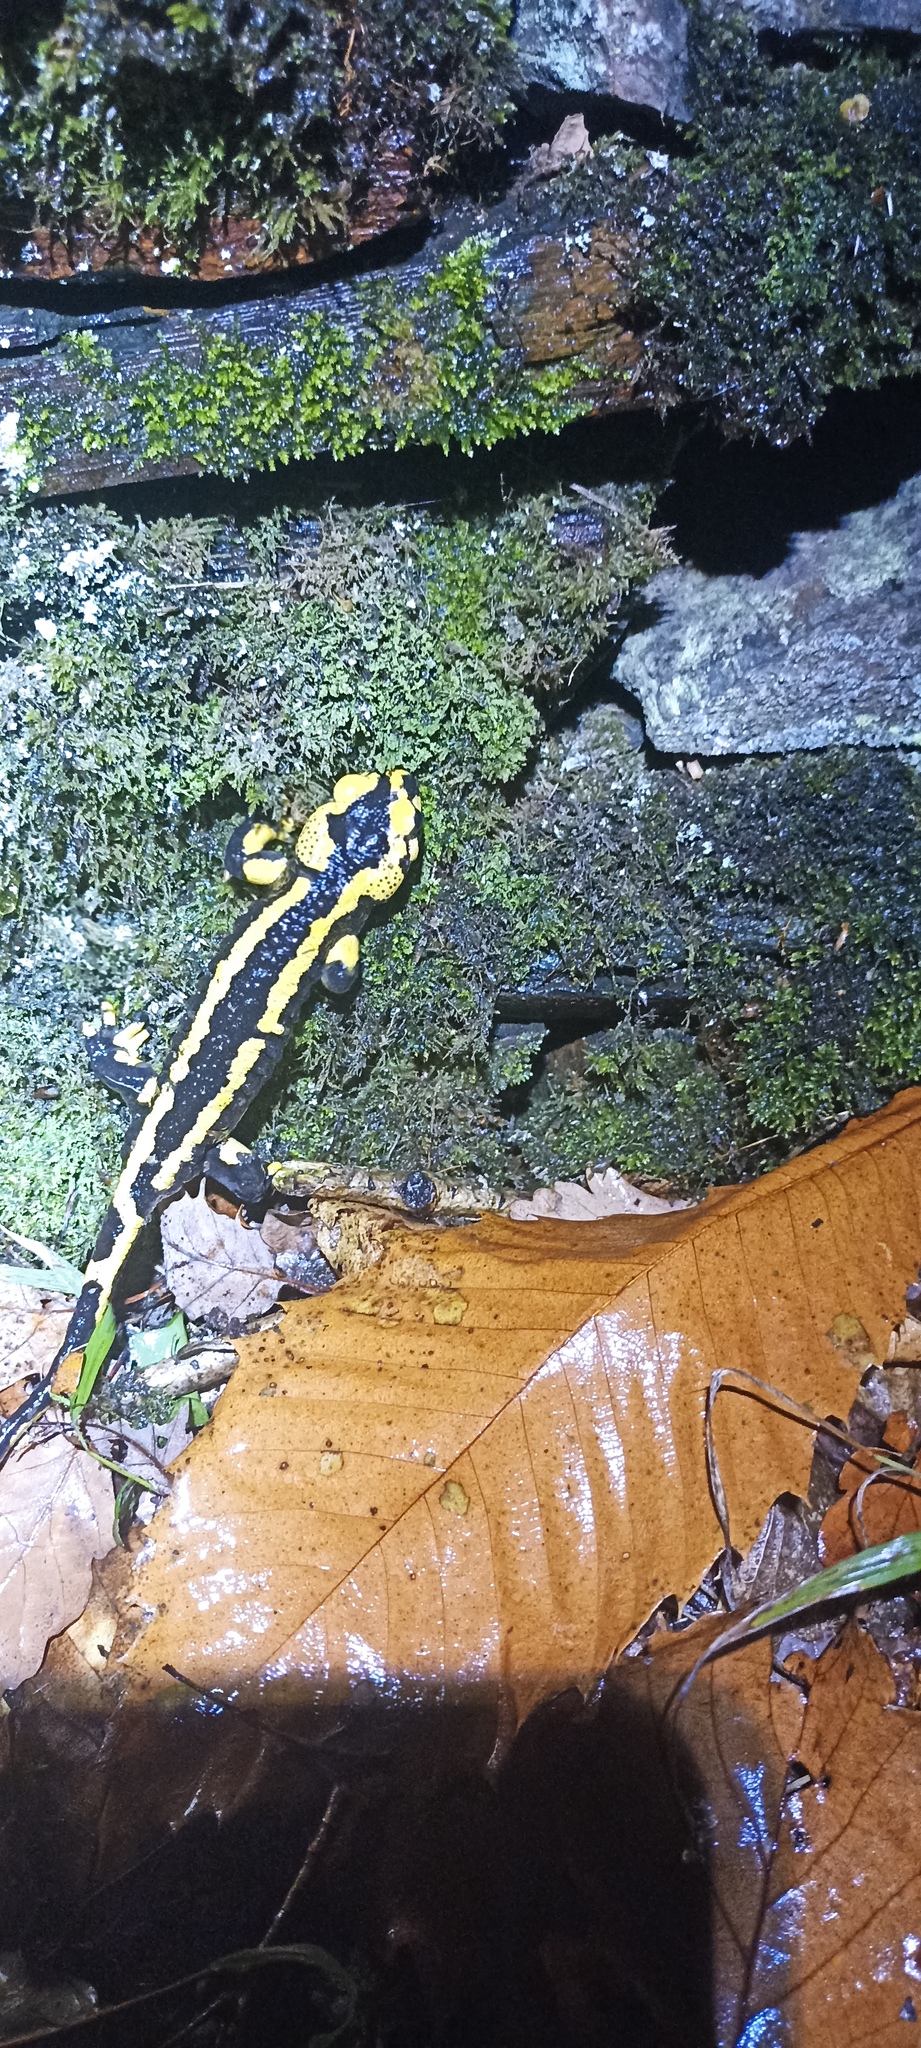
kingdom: Animalia
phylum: Chordata
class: Amphibia
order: Caudata
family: Salamandridae
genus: Salamandra
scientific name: Salamandra salamandra
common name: Fire salamander
